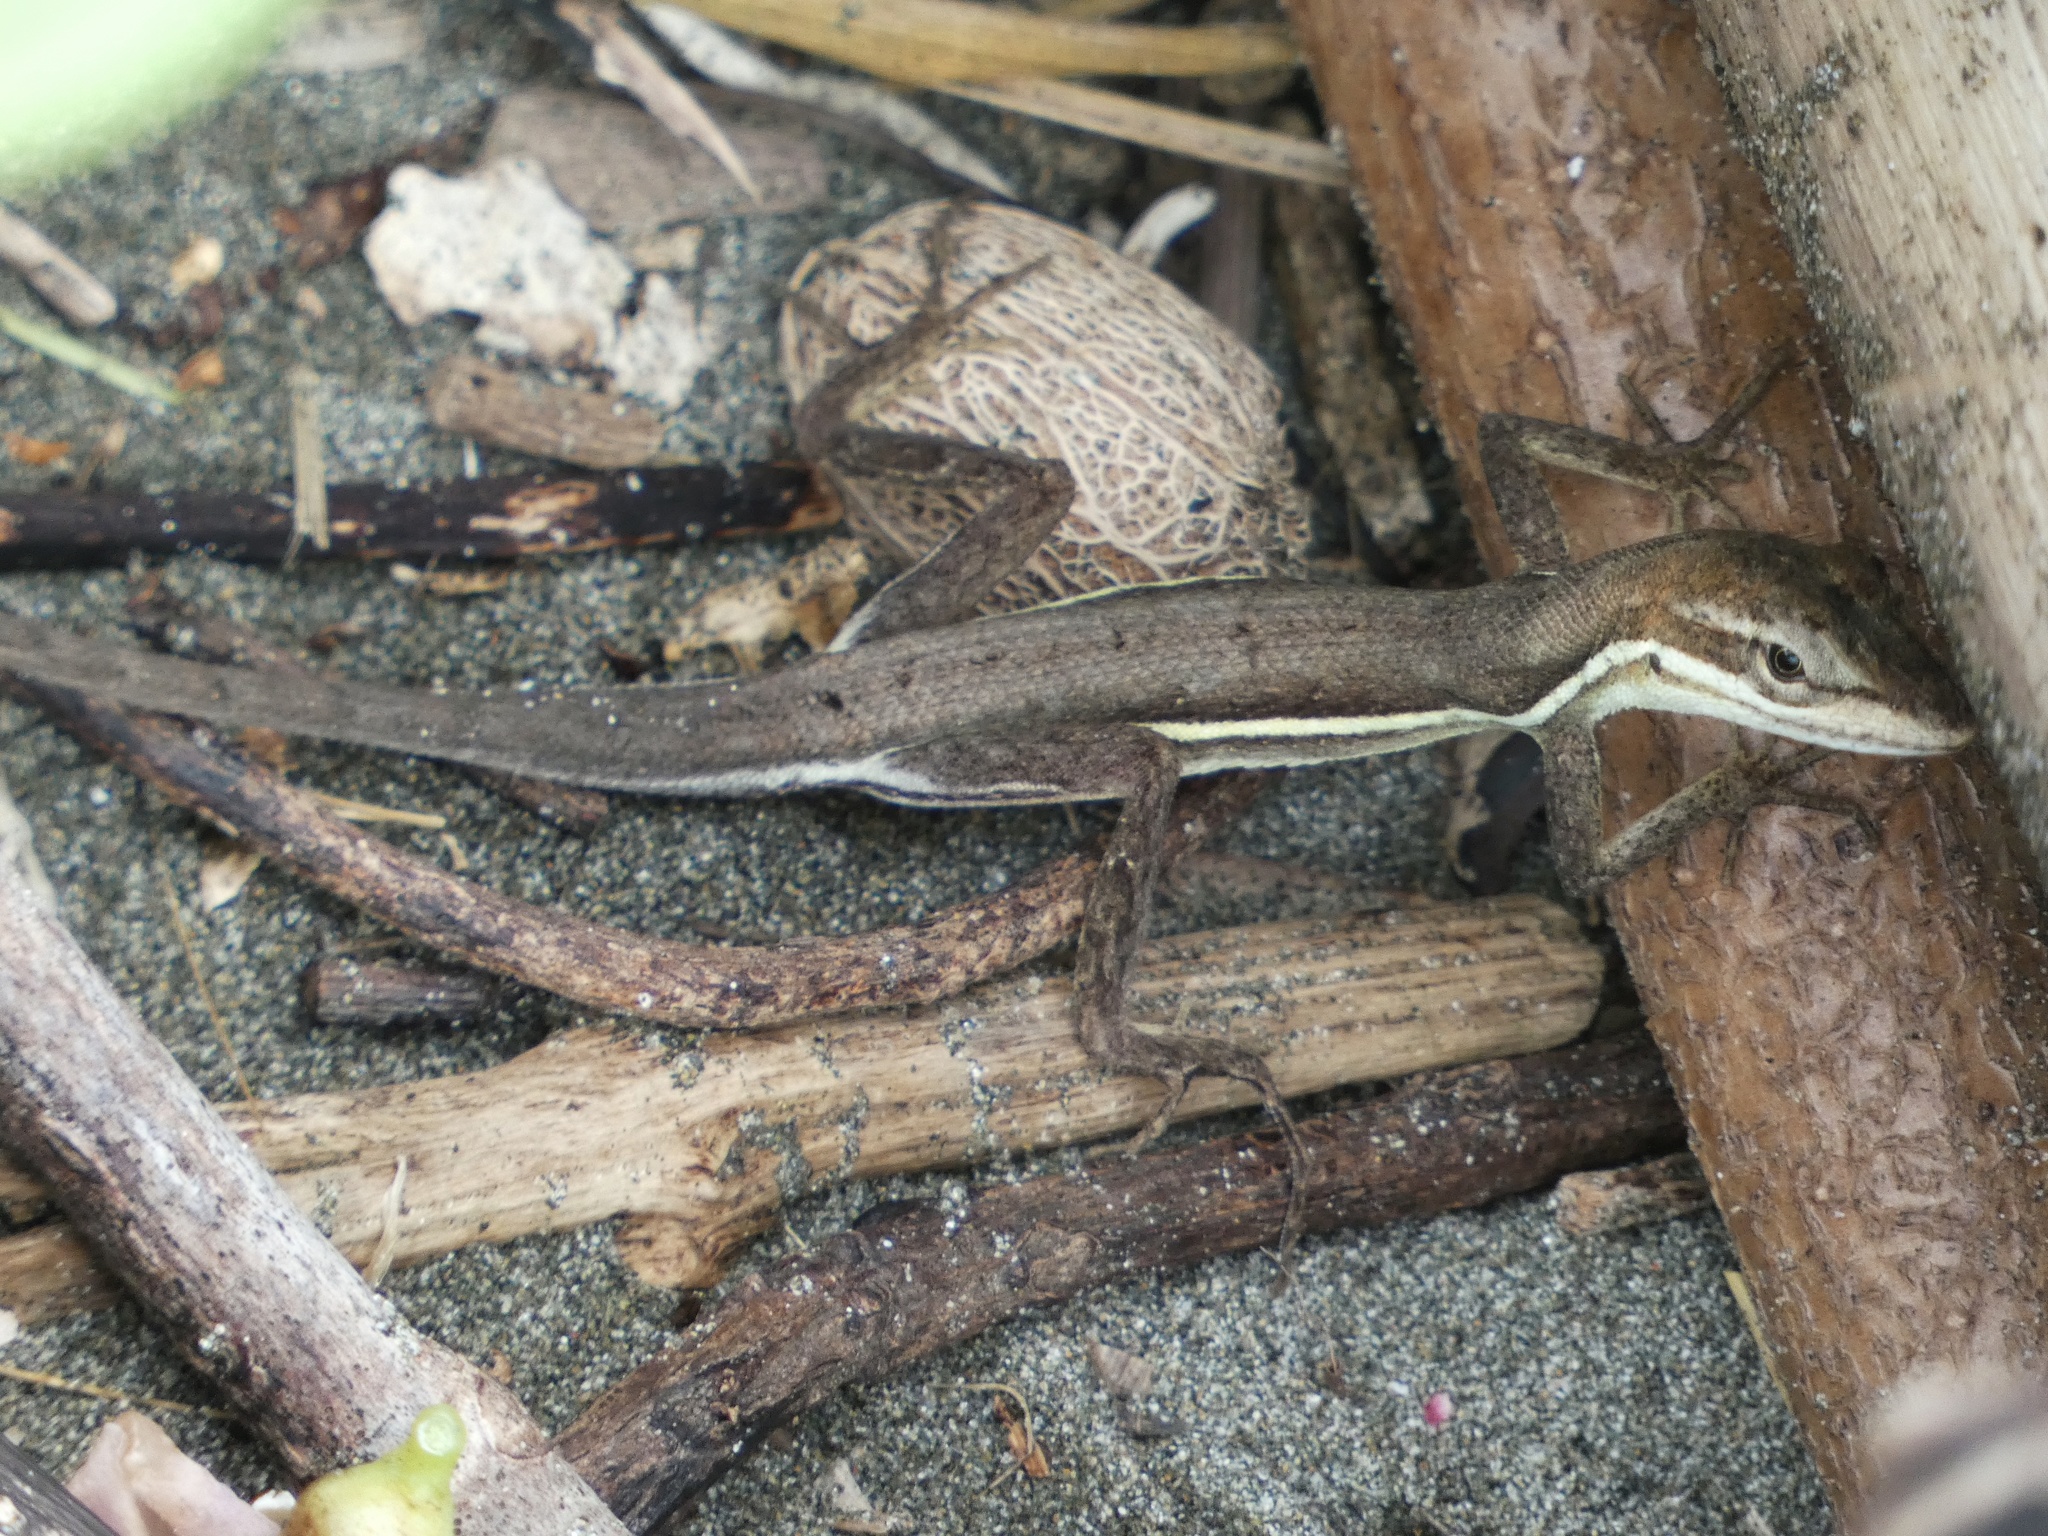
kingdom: Animalia
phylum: Chordata
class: Squamata
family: Dactyloidae
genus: Anolis
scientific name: Anolis auratus
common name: Grass anole
